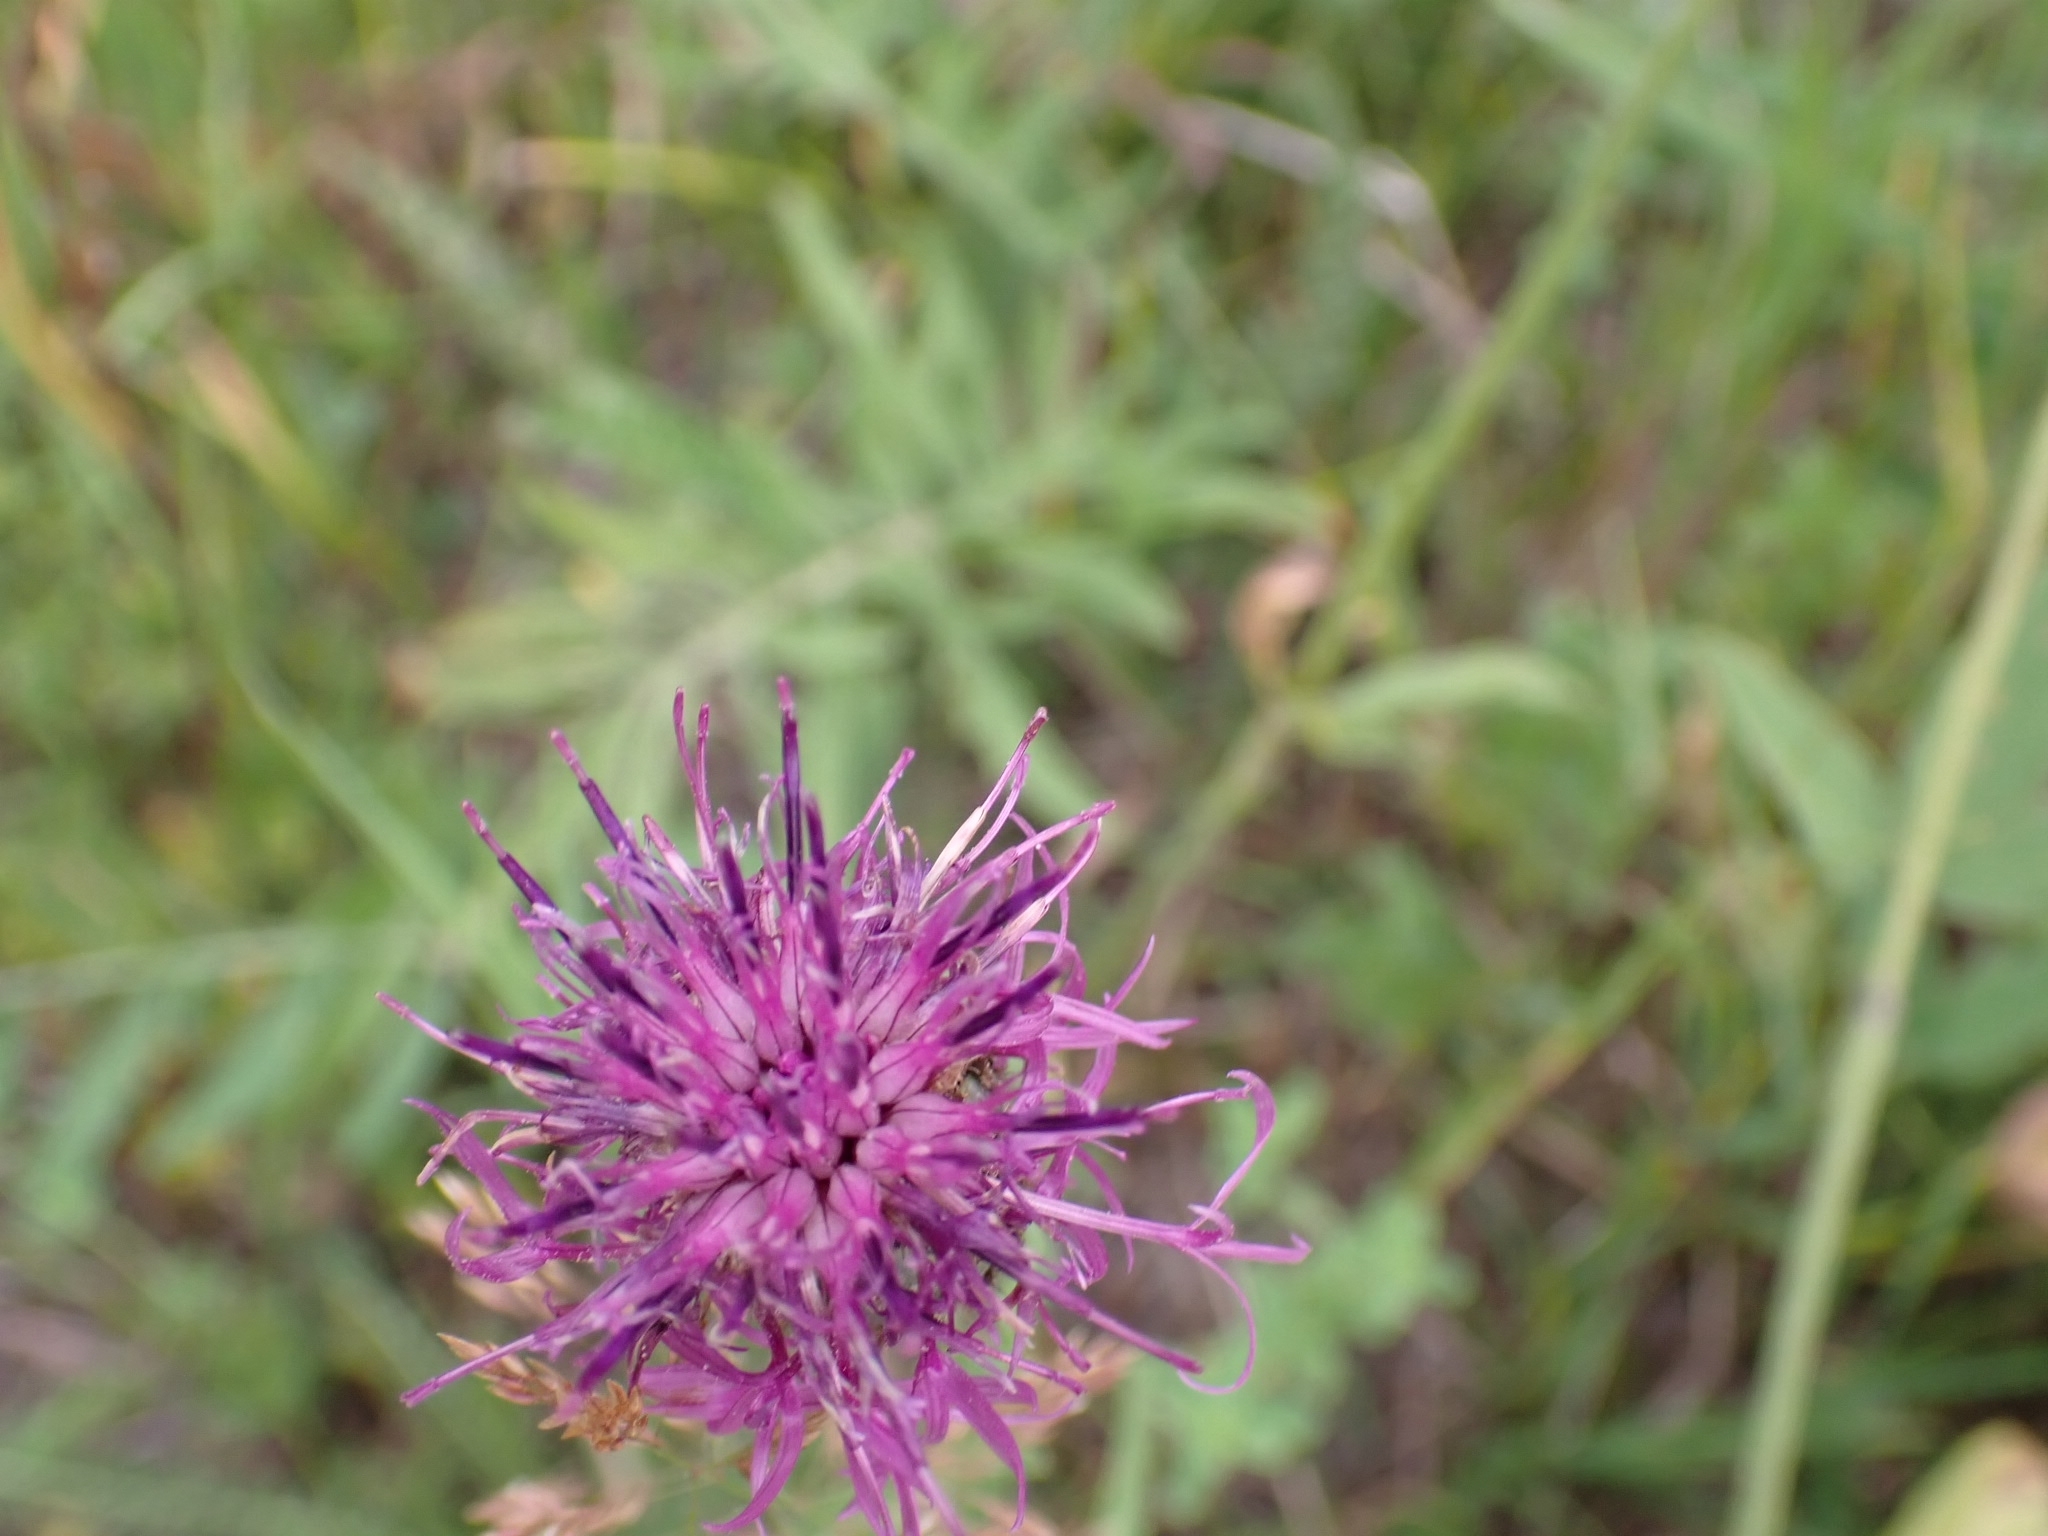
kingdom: Plantae
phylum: Tracheophyta
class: Magnoliopsida
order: Asterales
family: Asteraceae
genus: Centaurea
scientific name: Centaurea scabiosa
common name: Greater knapweed
